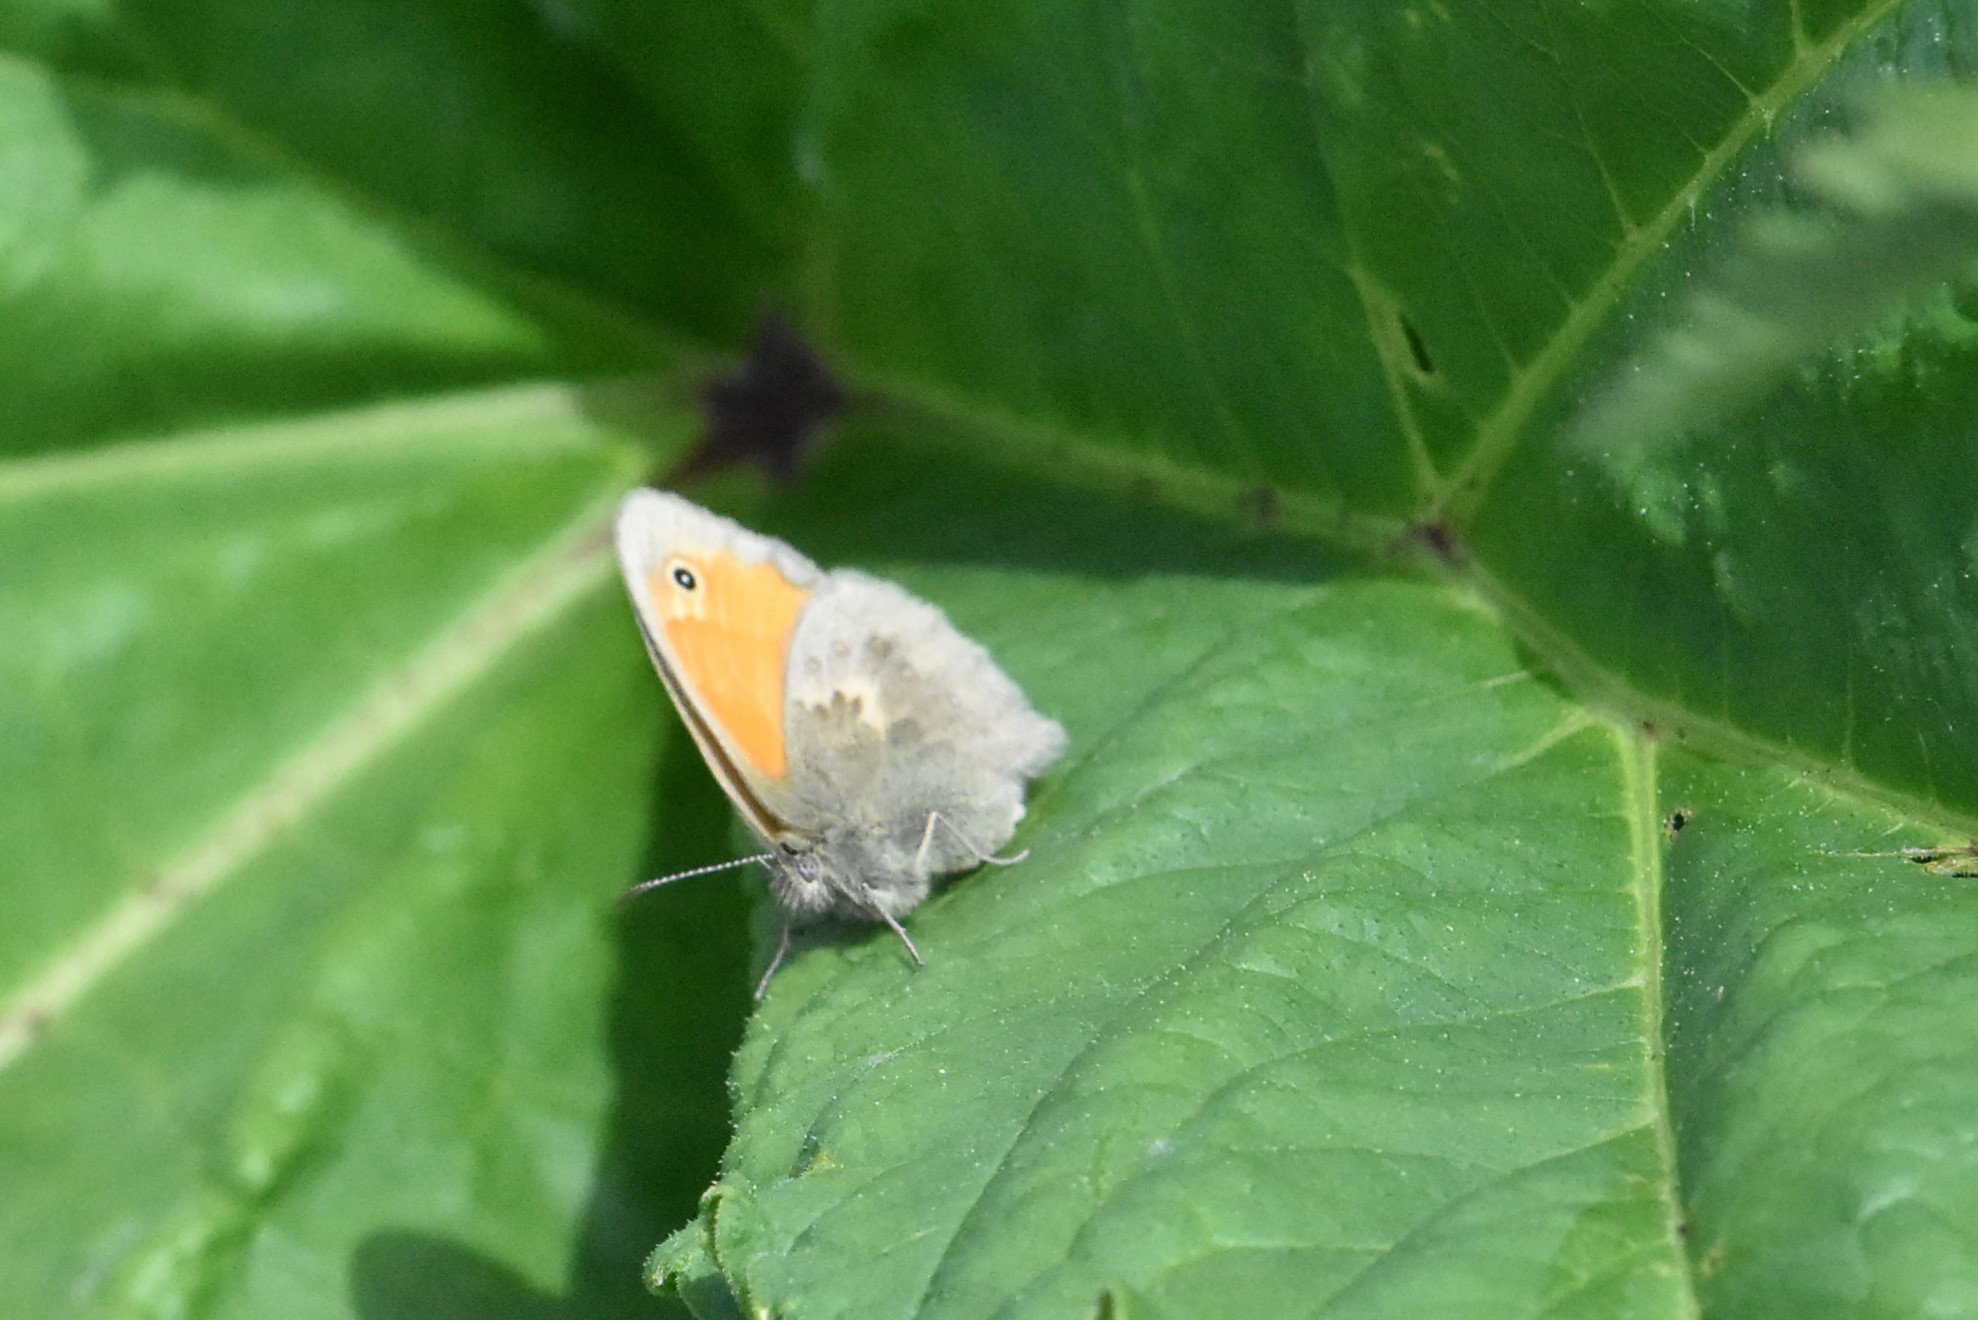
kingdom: Animalia
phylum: Arthropoda
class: Insecta
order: Lepidoptera
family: Nymphalidae
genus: Coenonympha
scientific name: Coenonympha pamphilus
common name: Small heath
